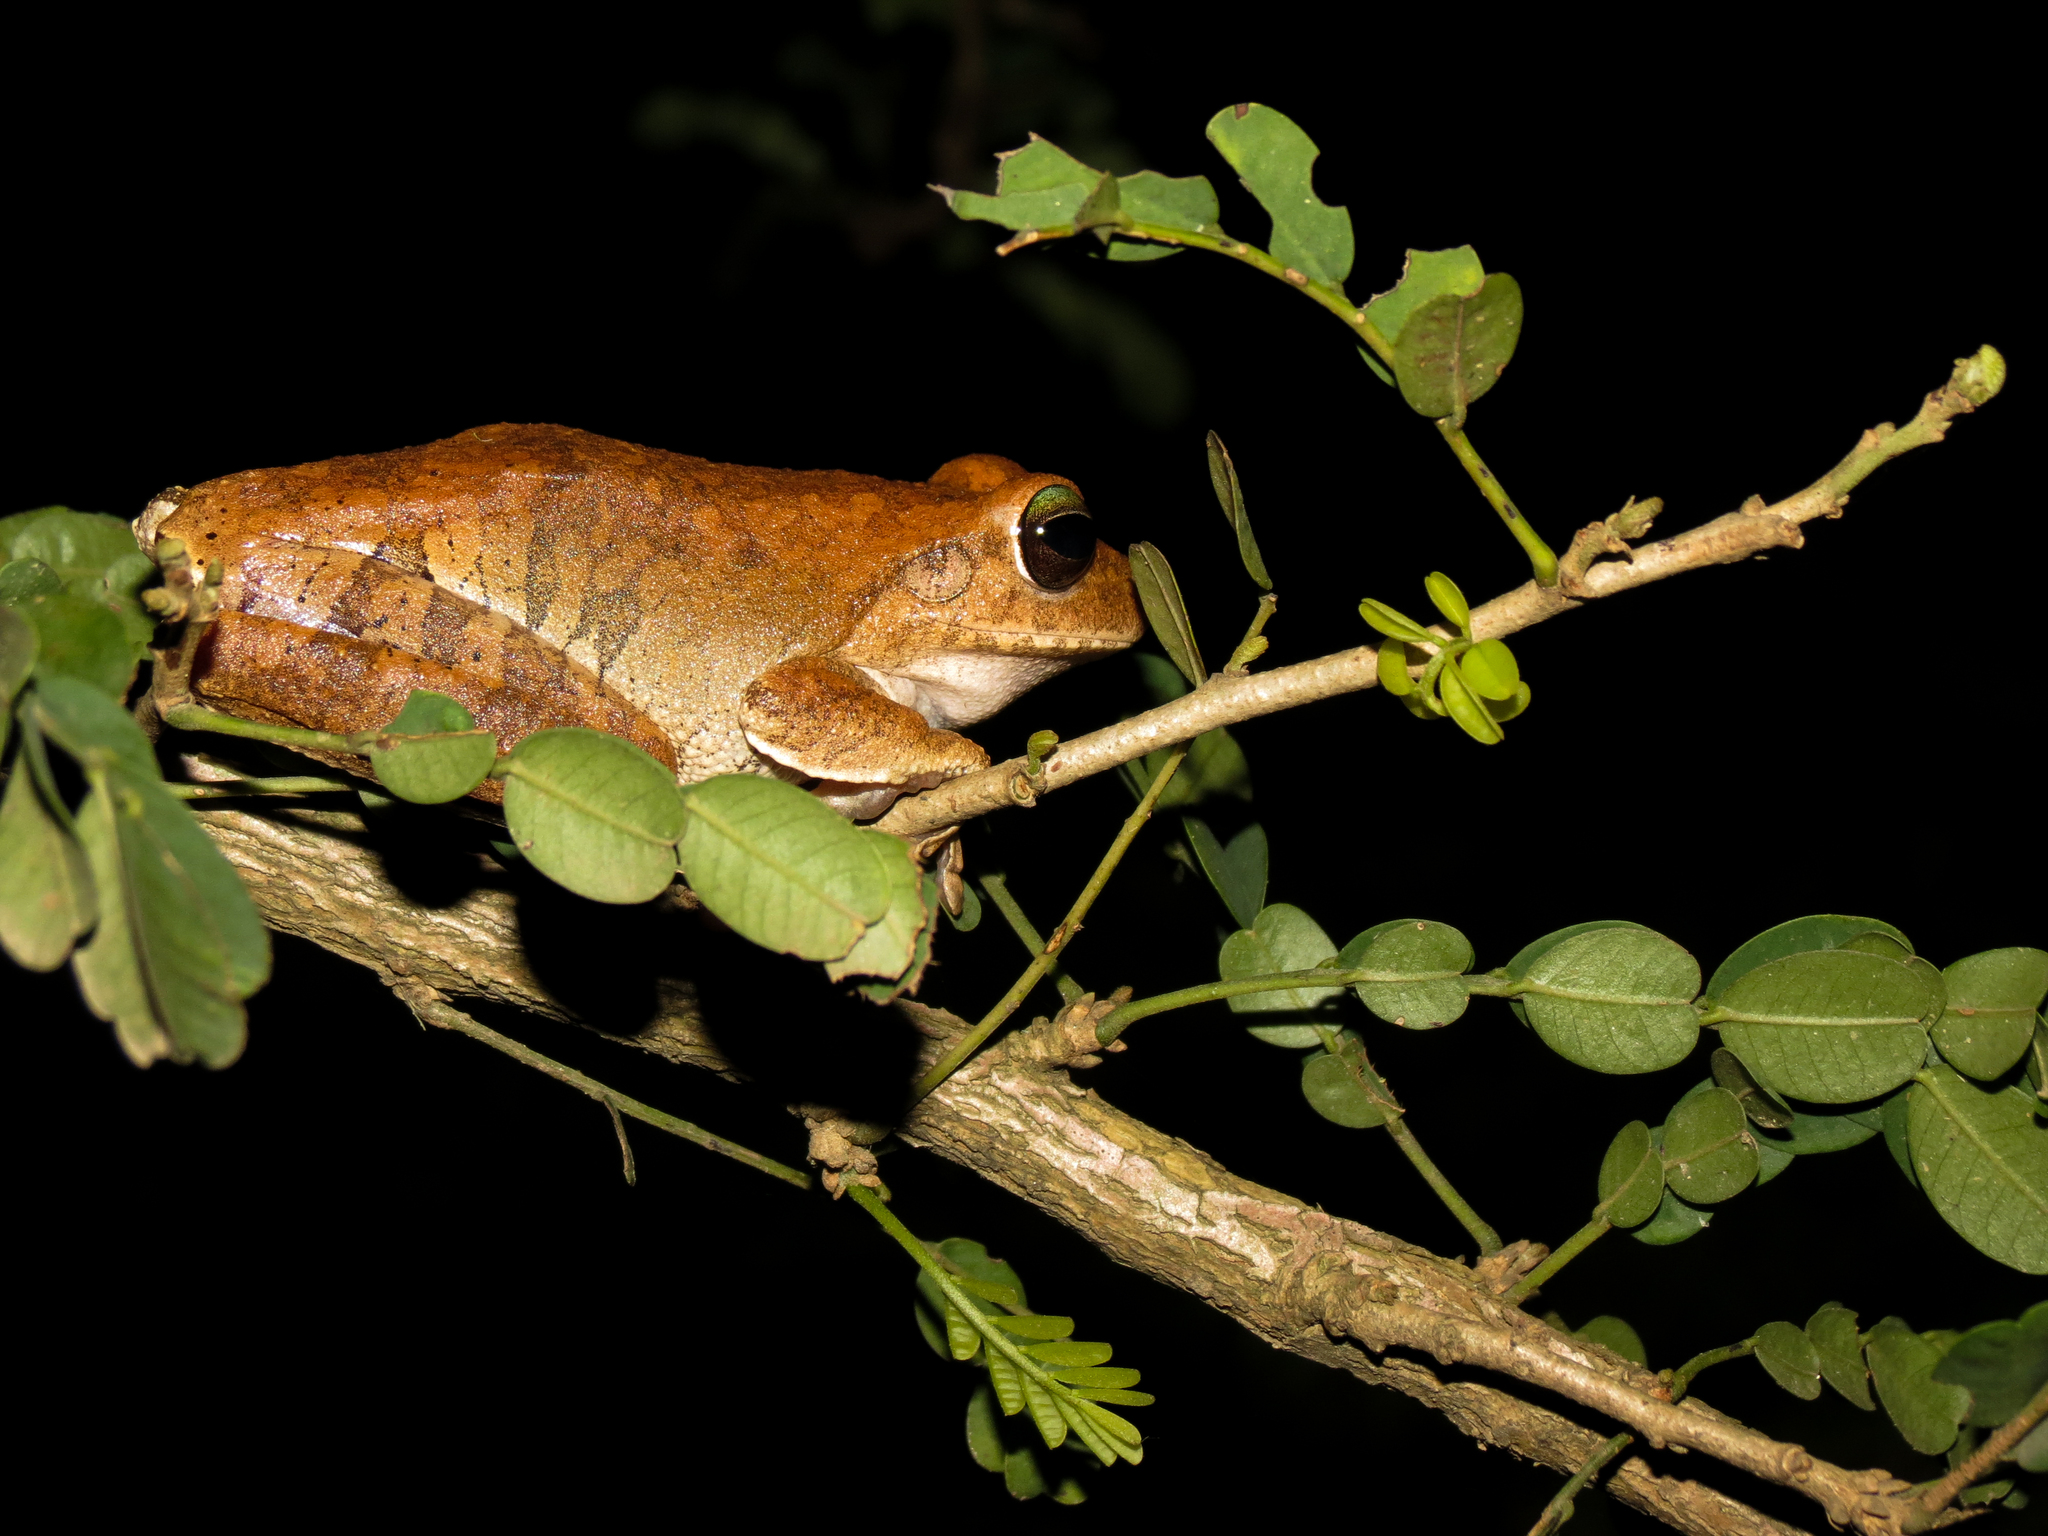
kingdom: Animalia
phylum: Chordata
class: Amphibia
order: Anura
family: Hylidae
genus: Boana
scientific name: Boana pugnax
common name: Chirique-flusse treefrog
